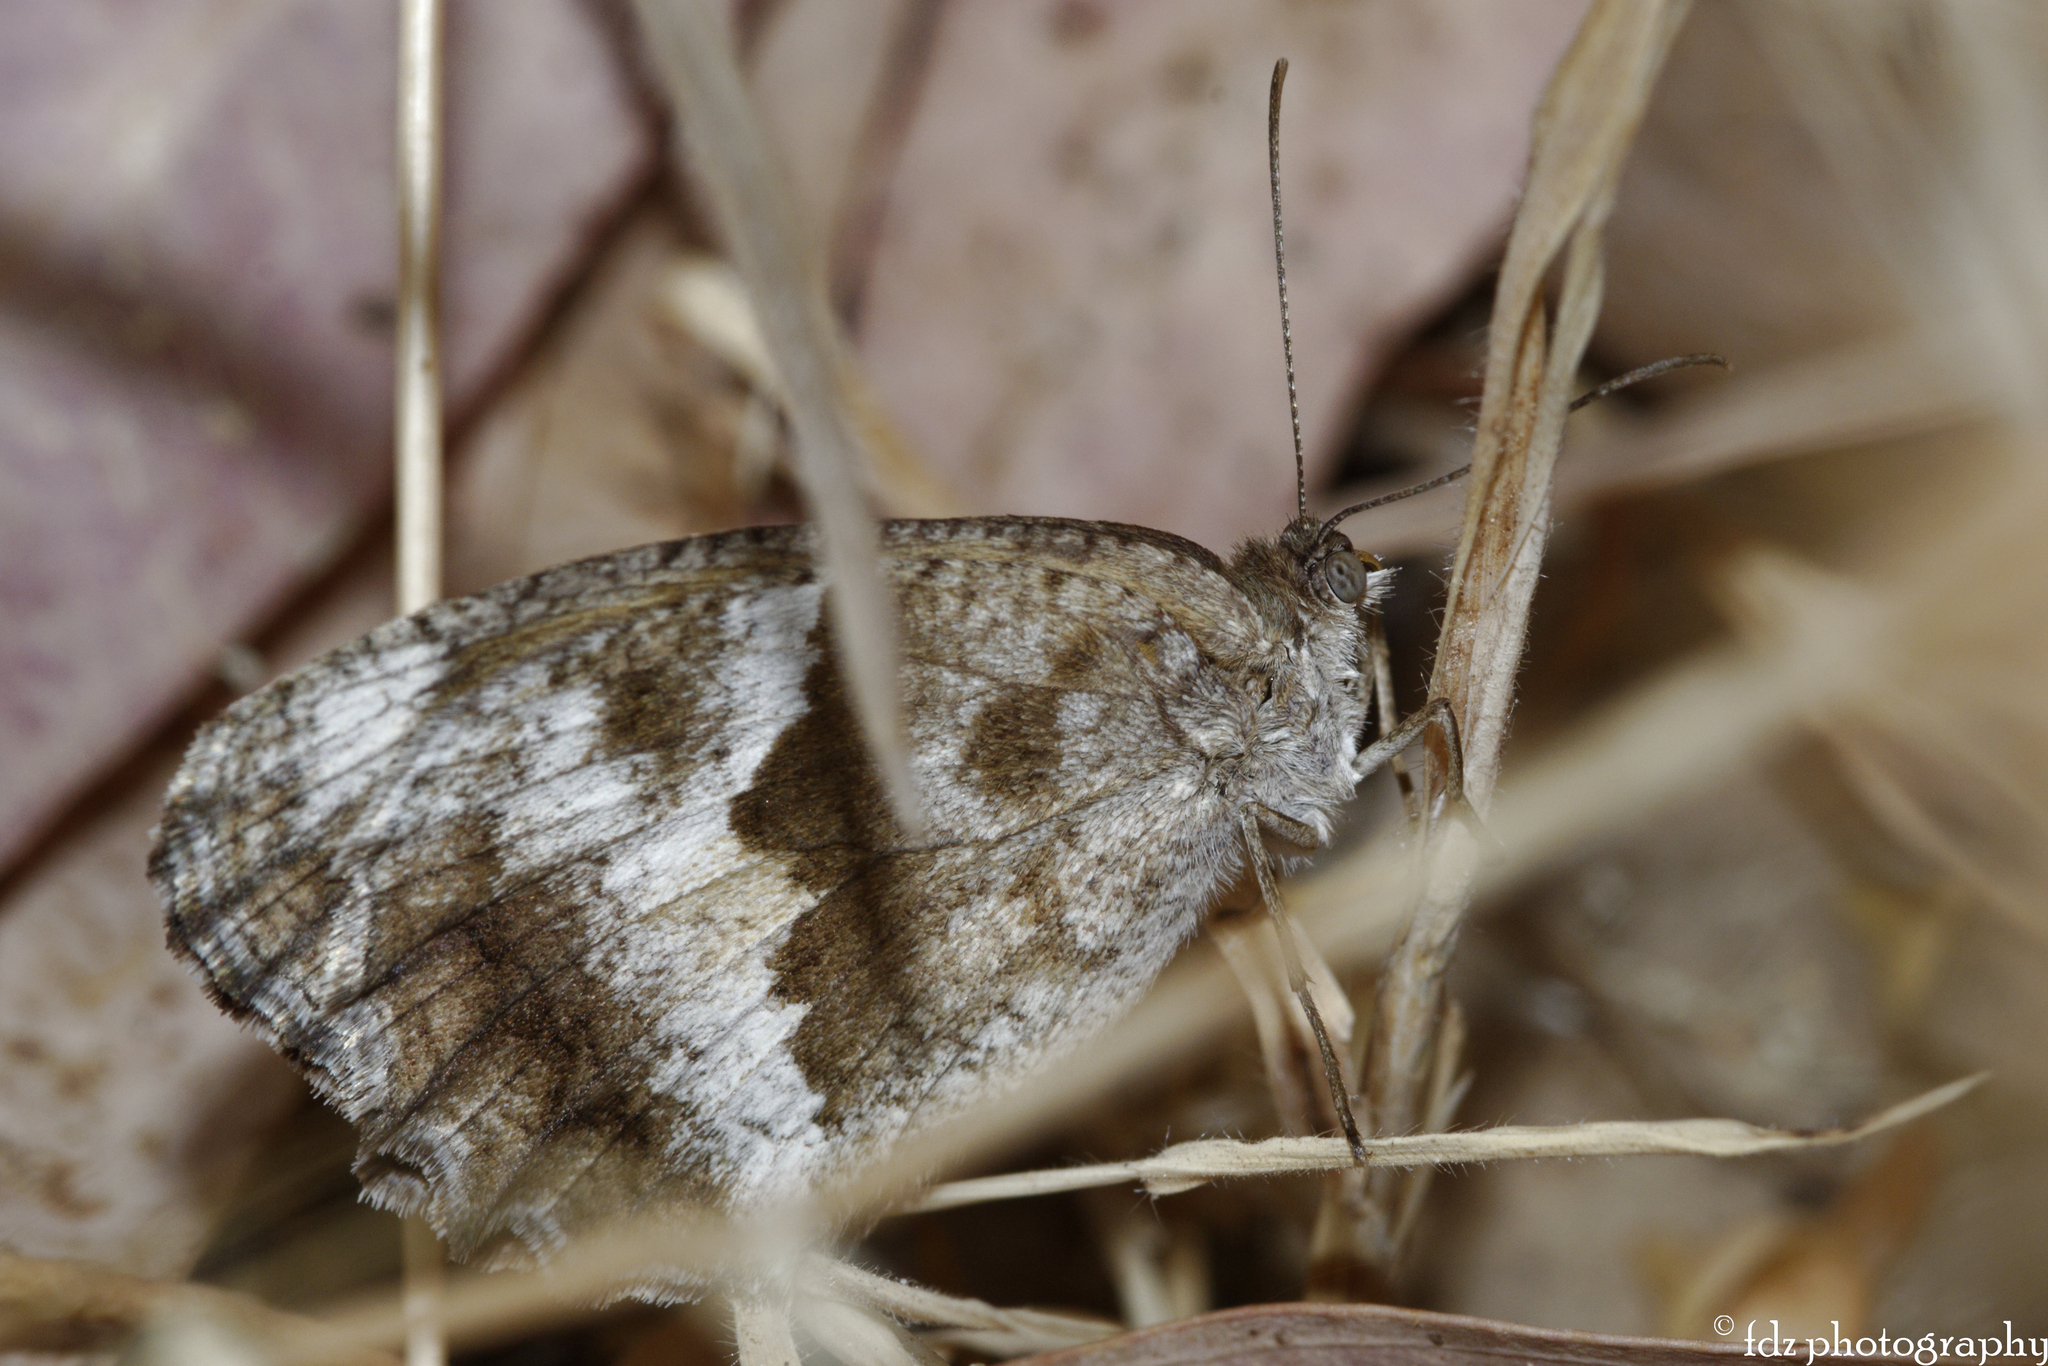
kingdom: Animalia
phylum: Arthropoda
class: Insecta
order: Lepidoptera
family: Nymphalidae
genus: Pyronia
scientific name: Pyronia cecilia
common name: Southern gatekeeper
